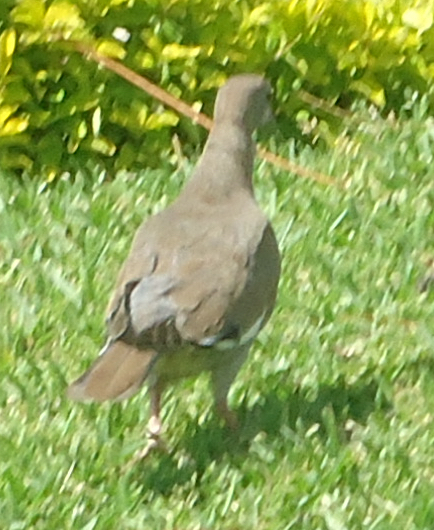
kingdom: Animalia
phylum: Chordata
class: Aves
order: Columbiformes
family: Columbidae
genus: Zenaida
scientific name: Zenaida asiatica
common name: White-winged dove
